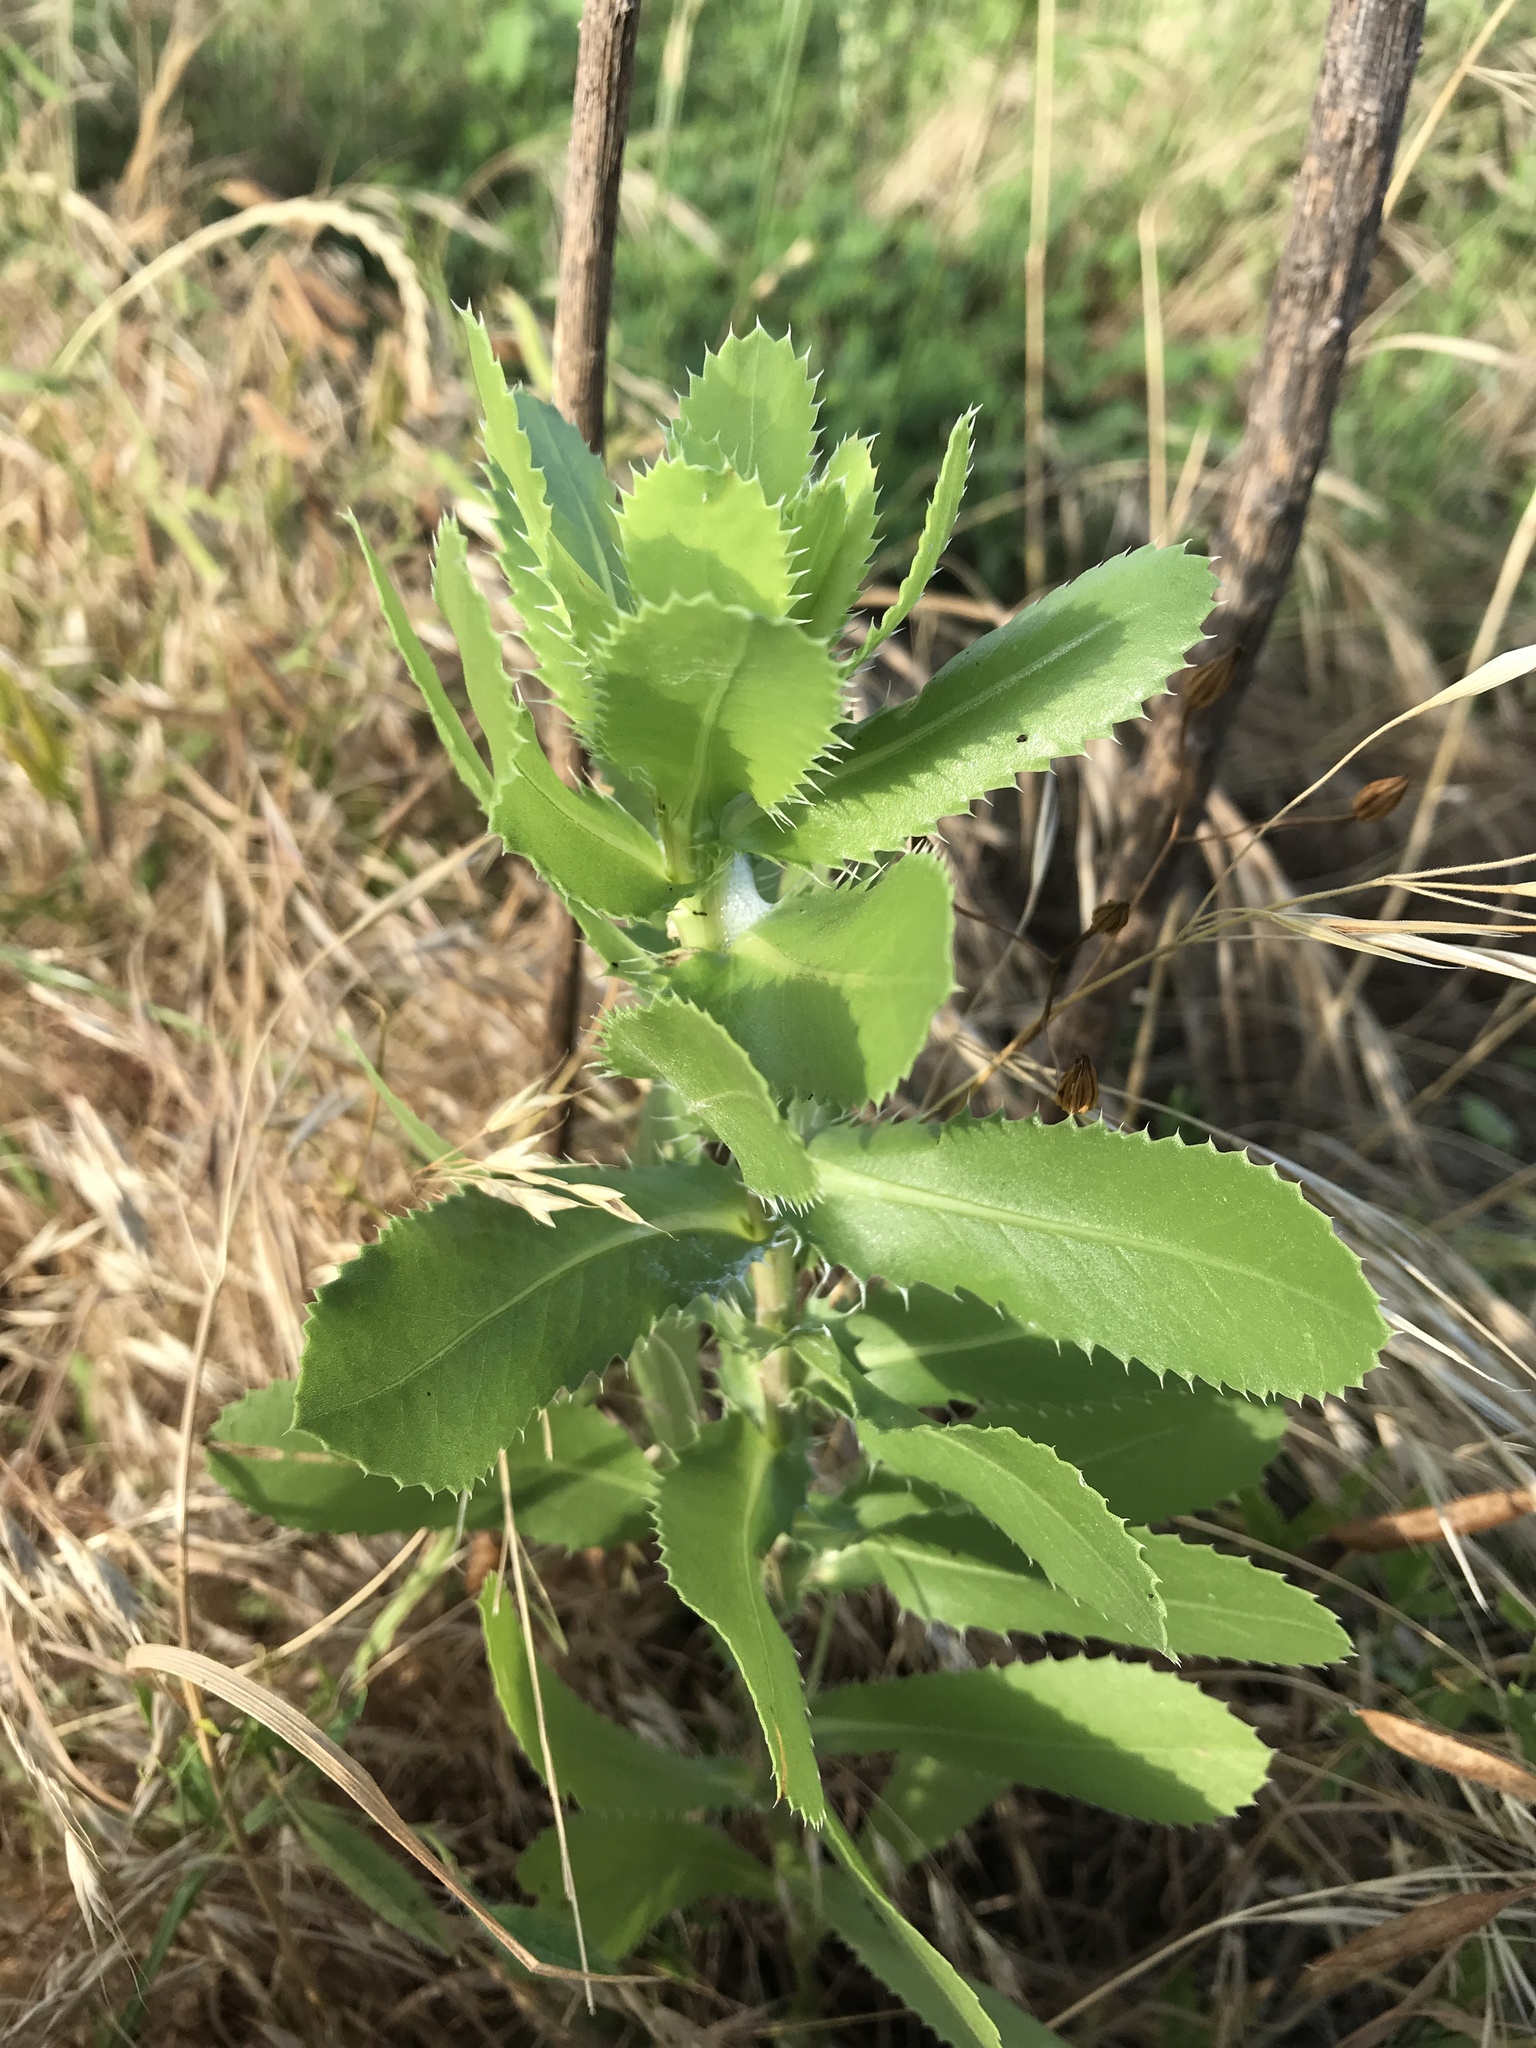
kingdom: Plantae
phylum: Tracheophyta
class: Magnoliopsida
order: Asterales
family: Asteraceae
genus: Grindelia
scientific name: Grindelia ciliata
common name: Goldenweed
